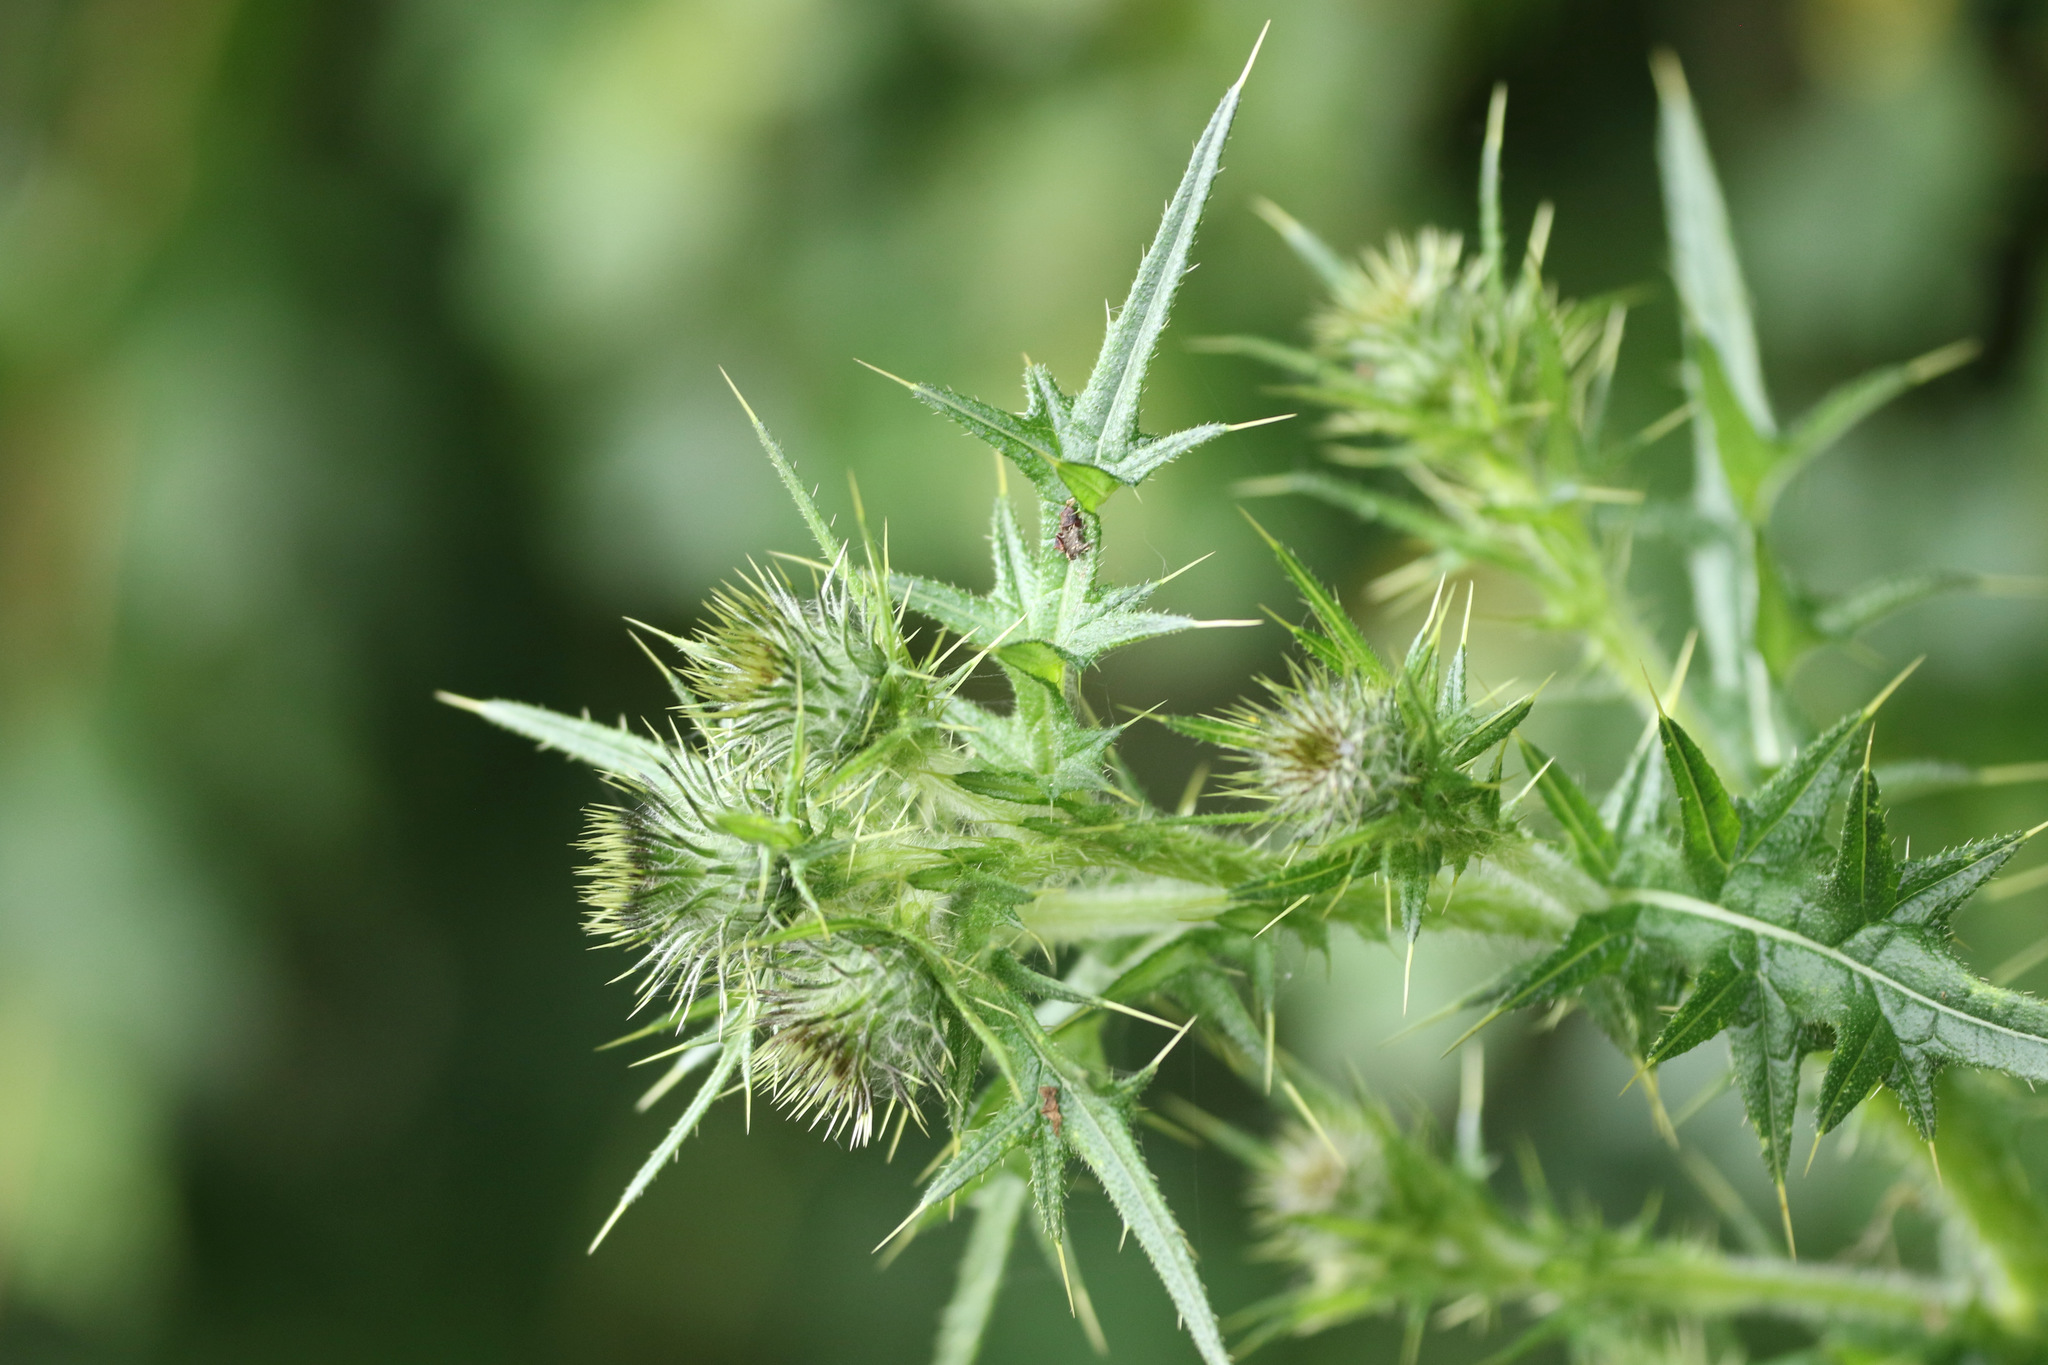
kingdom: Plantae
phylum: Tracheophyta
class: Magnoliopsida
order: Asterales
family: Asteraceae
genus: Cirsium
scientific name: Cirsium vulgare
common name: Bull thistle
